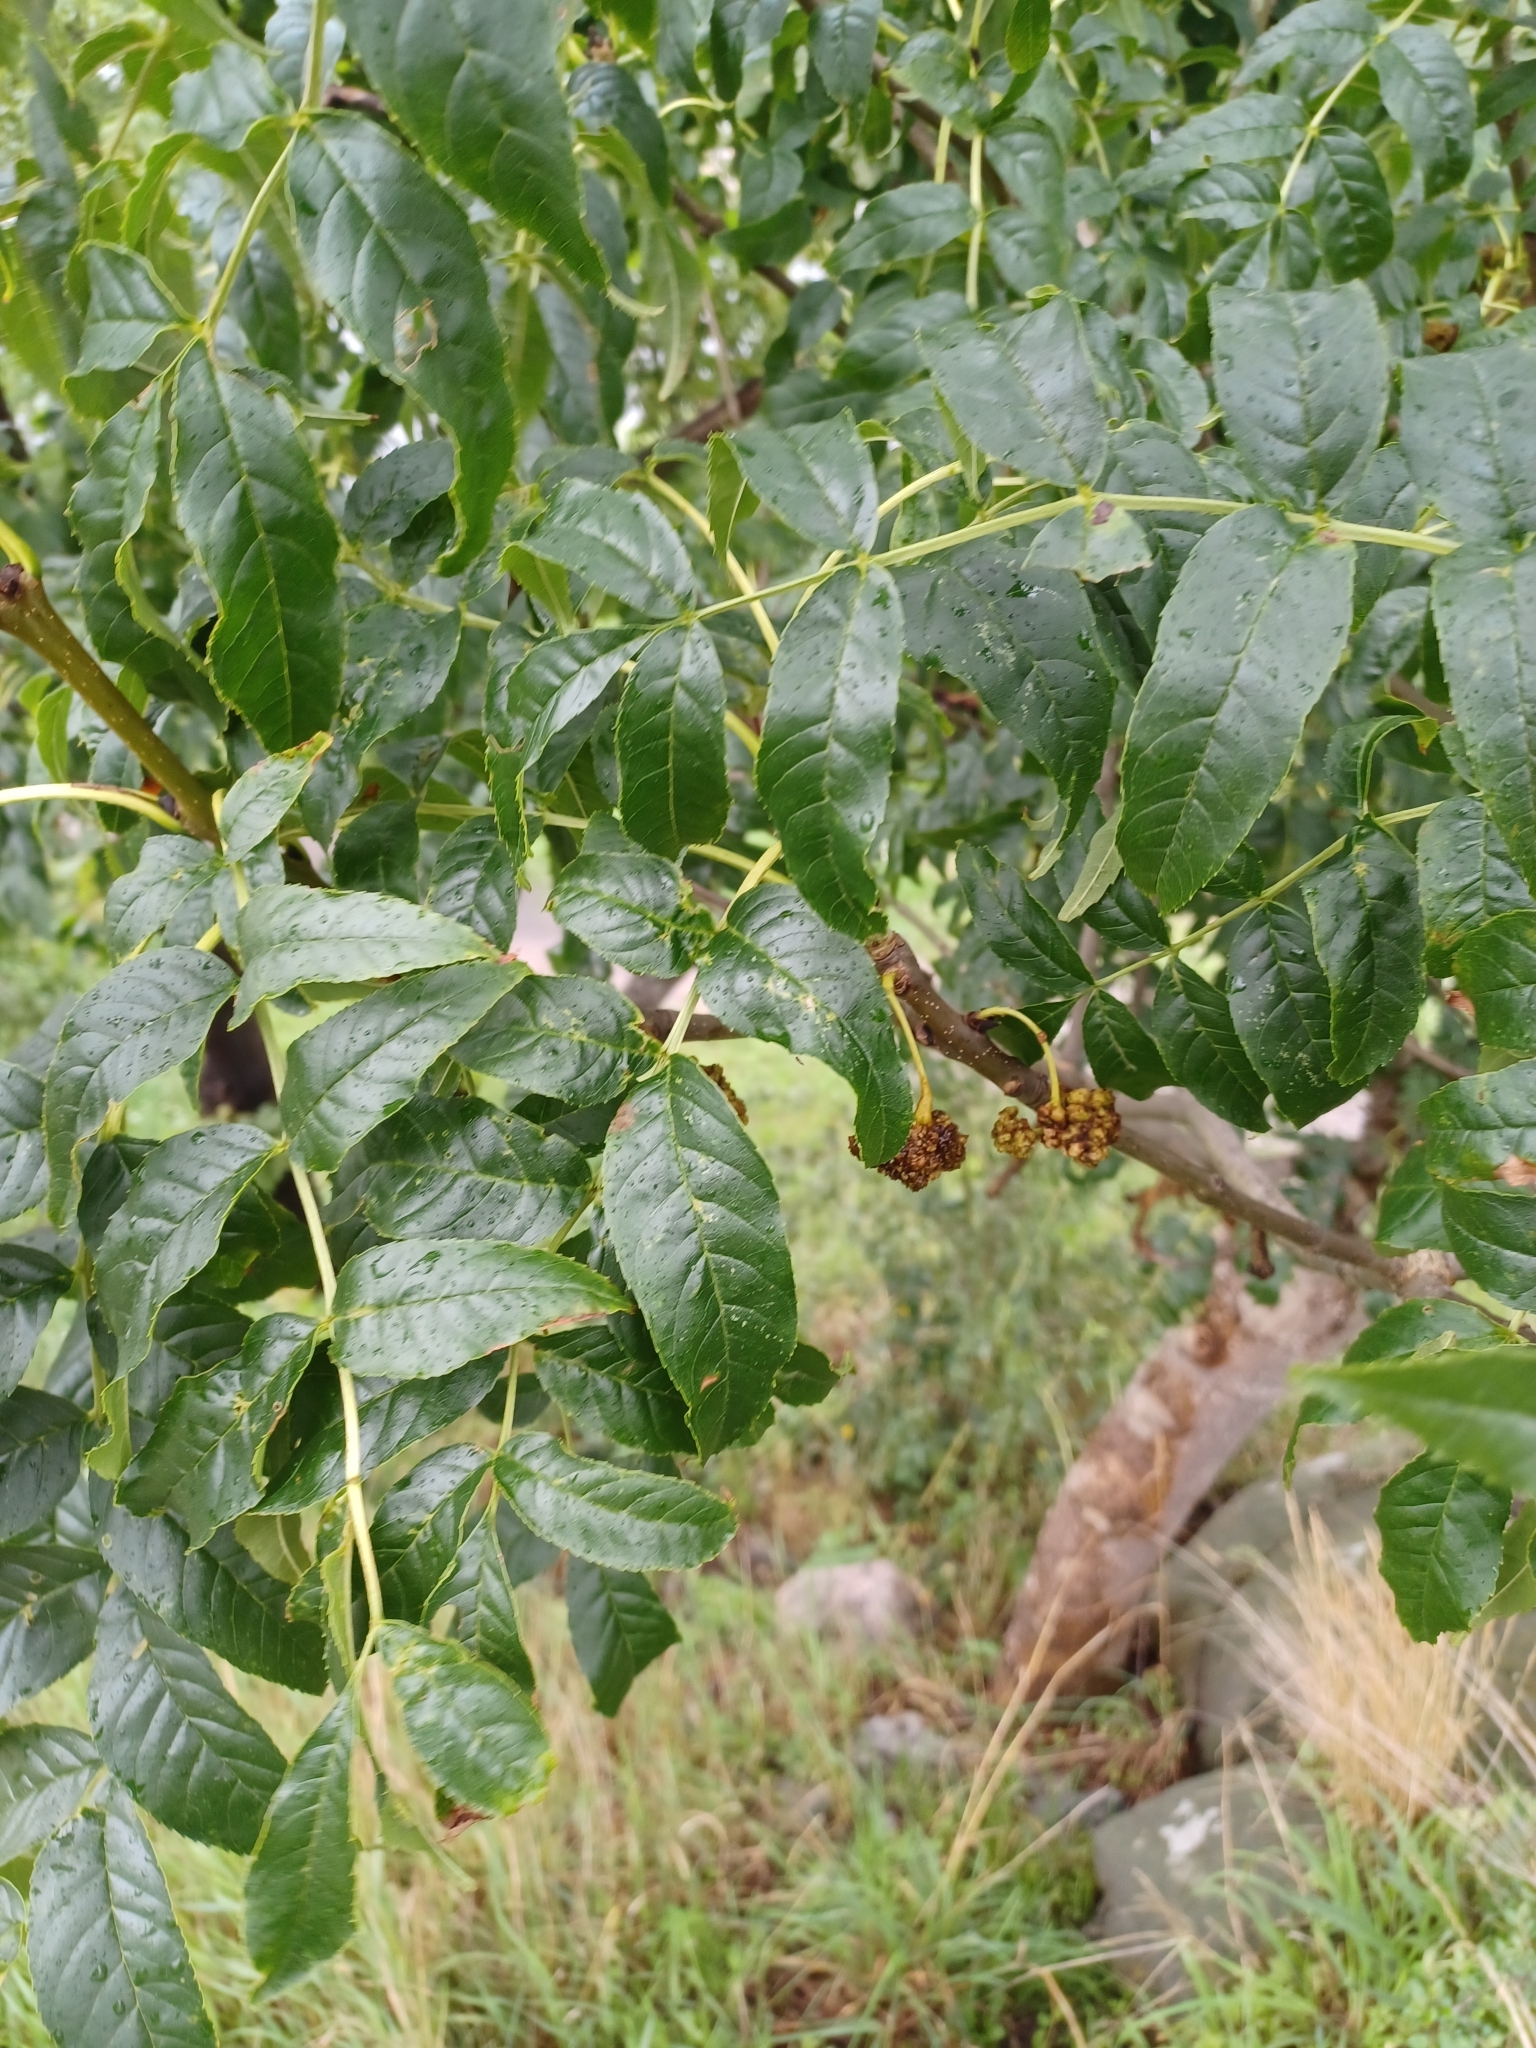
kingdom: Plantae
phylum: Tracheophyta
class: Magnoliopsida
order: Lamiales
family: Oleaceae
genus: Fraxinus
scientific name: Fraxinus excelsior
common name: European ash
